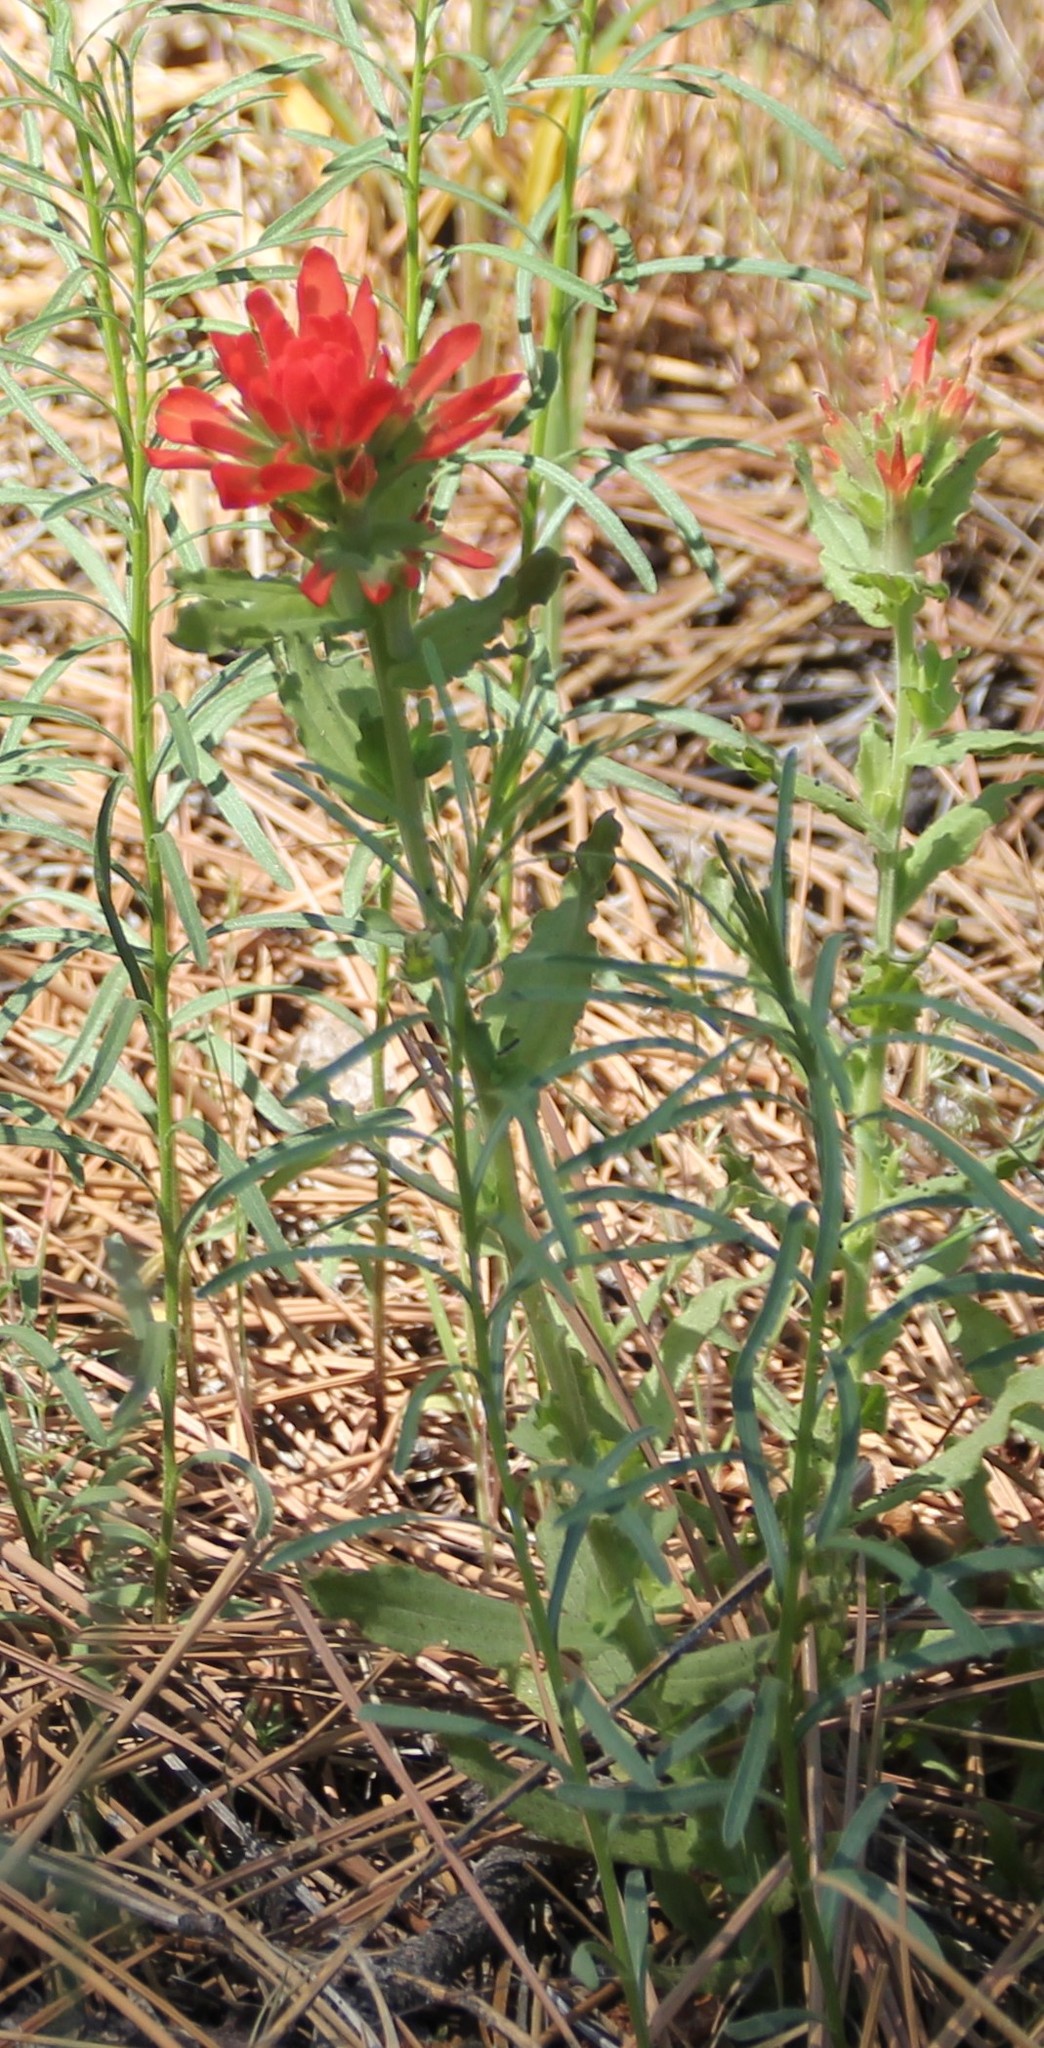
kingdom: Plantae
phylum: Tracheophyta
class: Magnoliopsida
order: Lamiales
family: Orobanchaceae
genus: Castilleja
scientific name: Castilleja applegatei
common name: Wavy-leaf paintbrush
